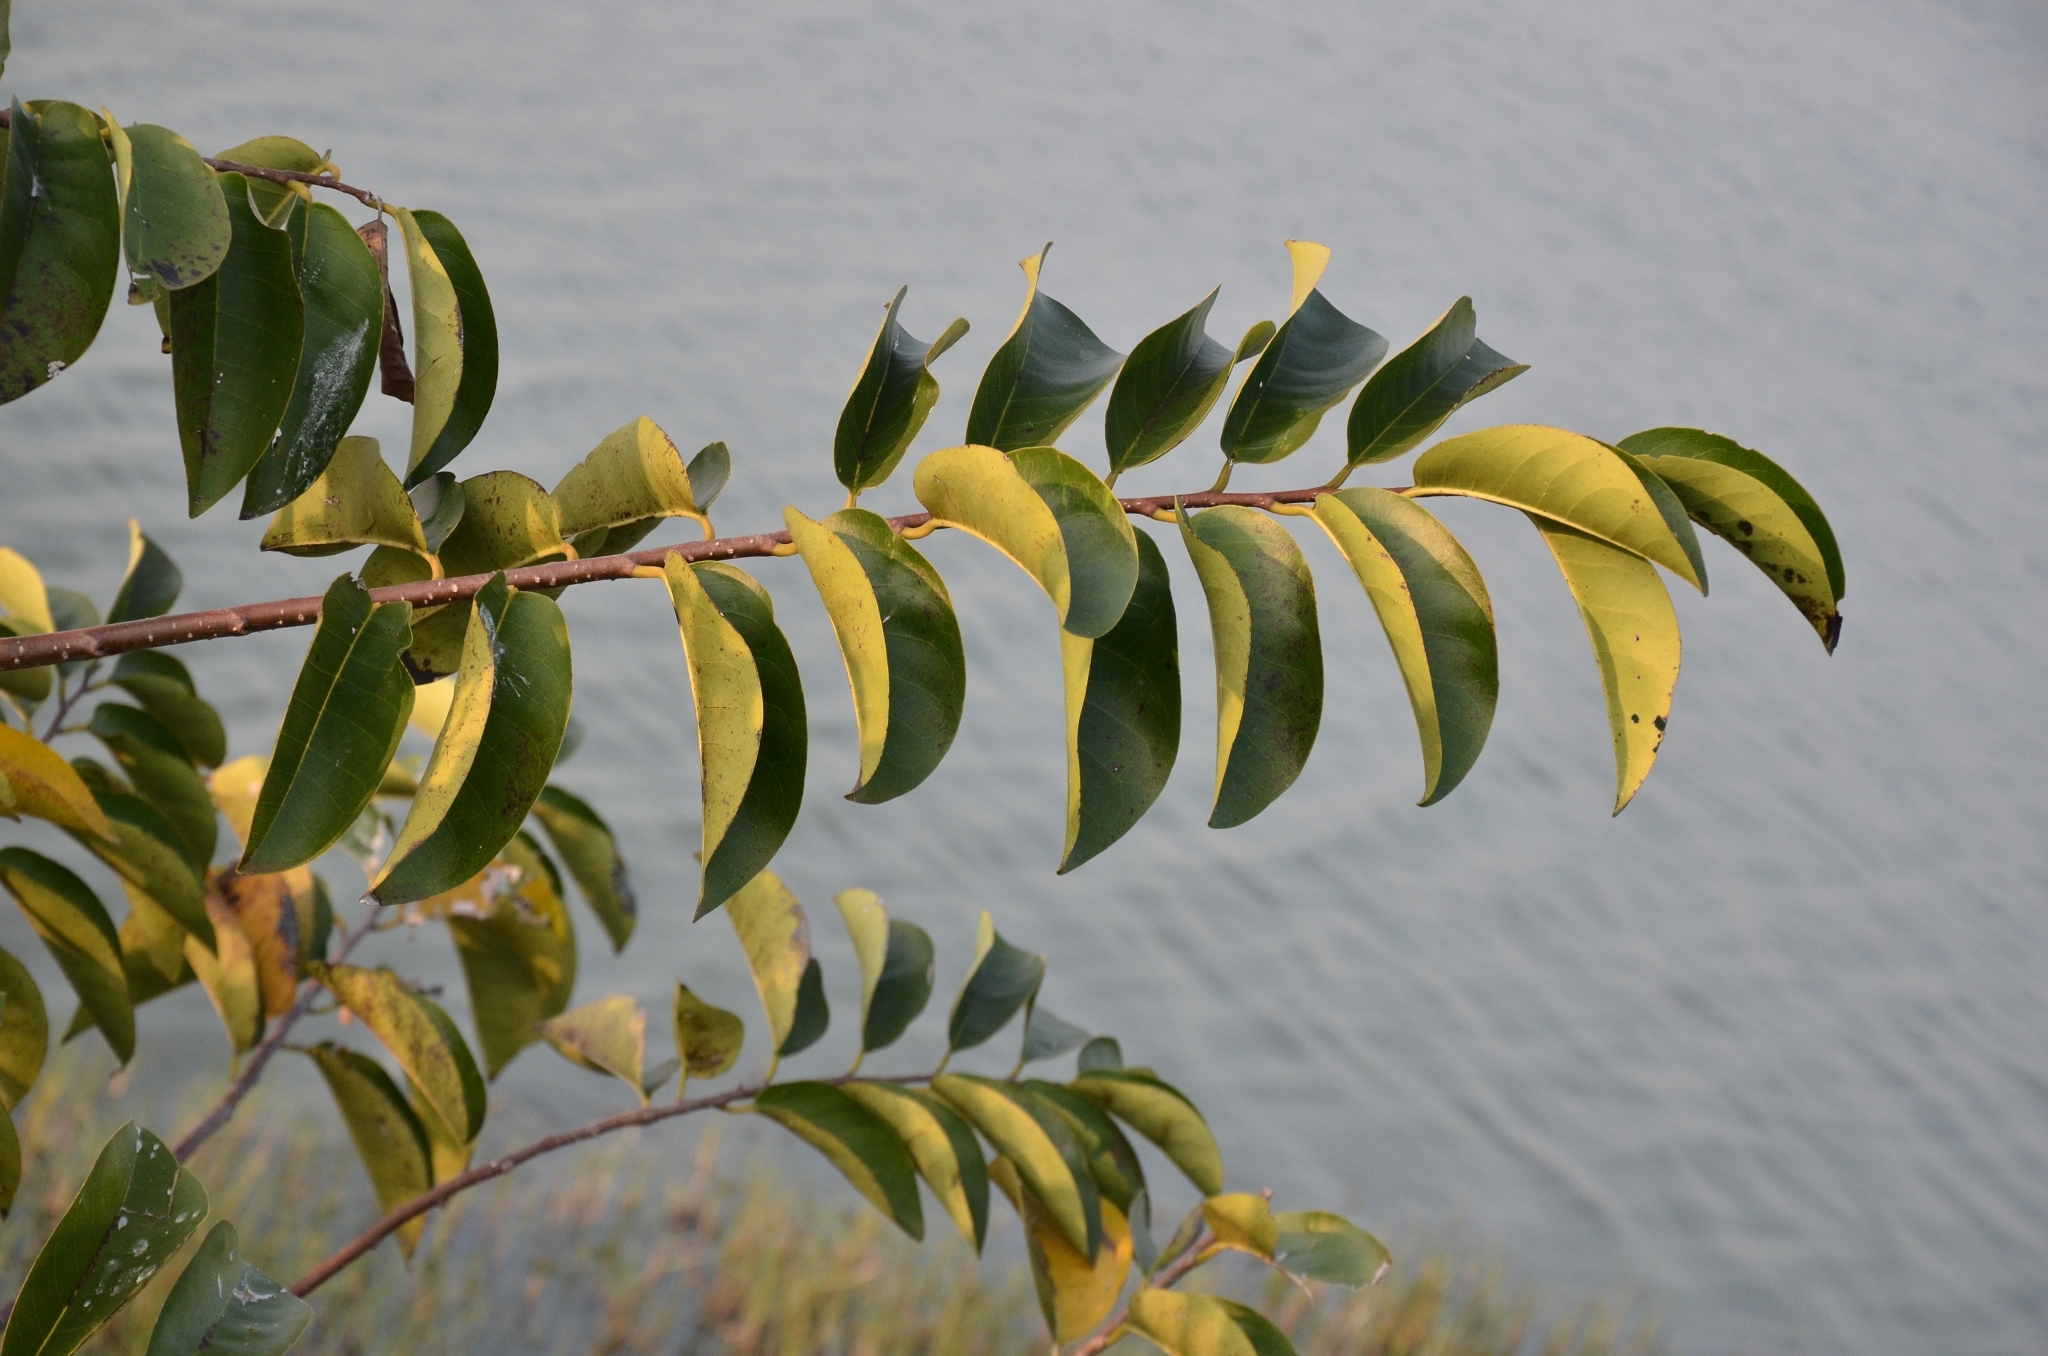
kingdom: Plantae
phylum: Tracheophyta
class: Magnoliopsida
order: Magnoliales
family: Annonaceae
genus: Annona
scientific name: Annona glabra
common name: Monkey apple
